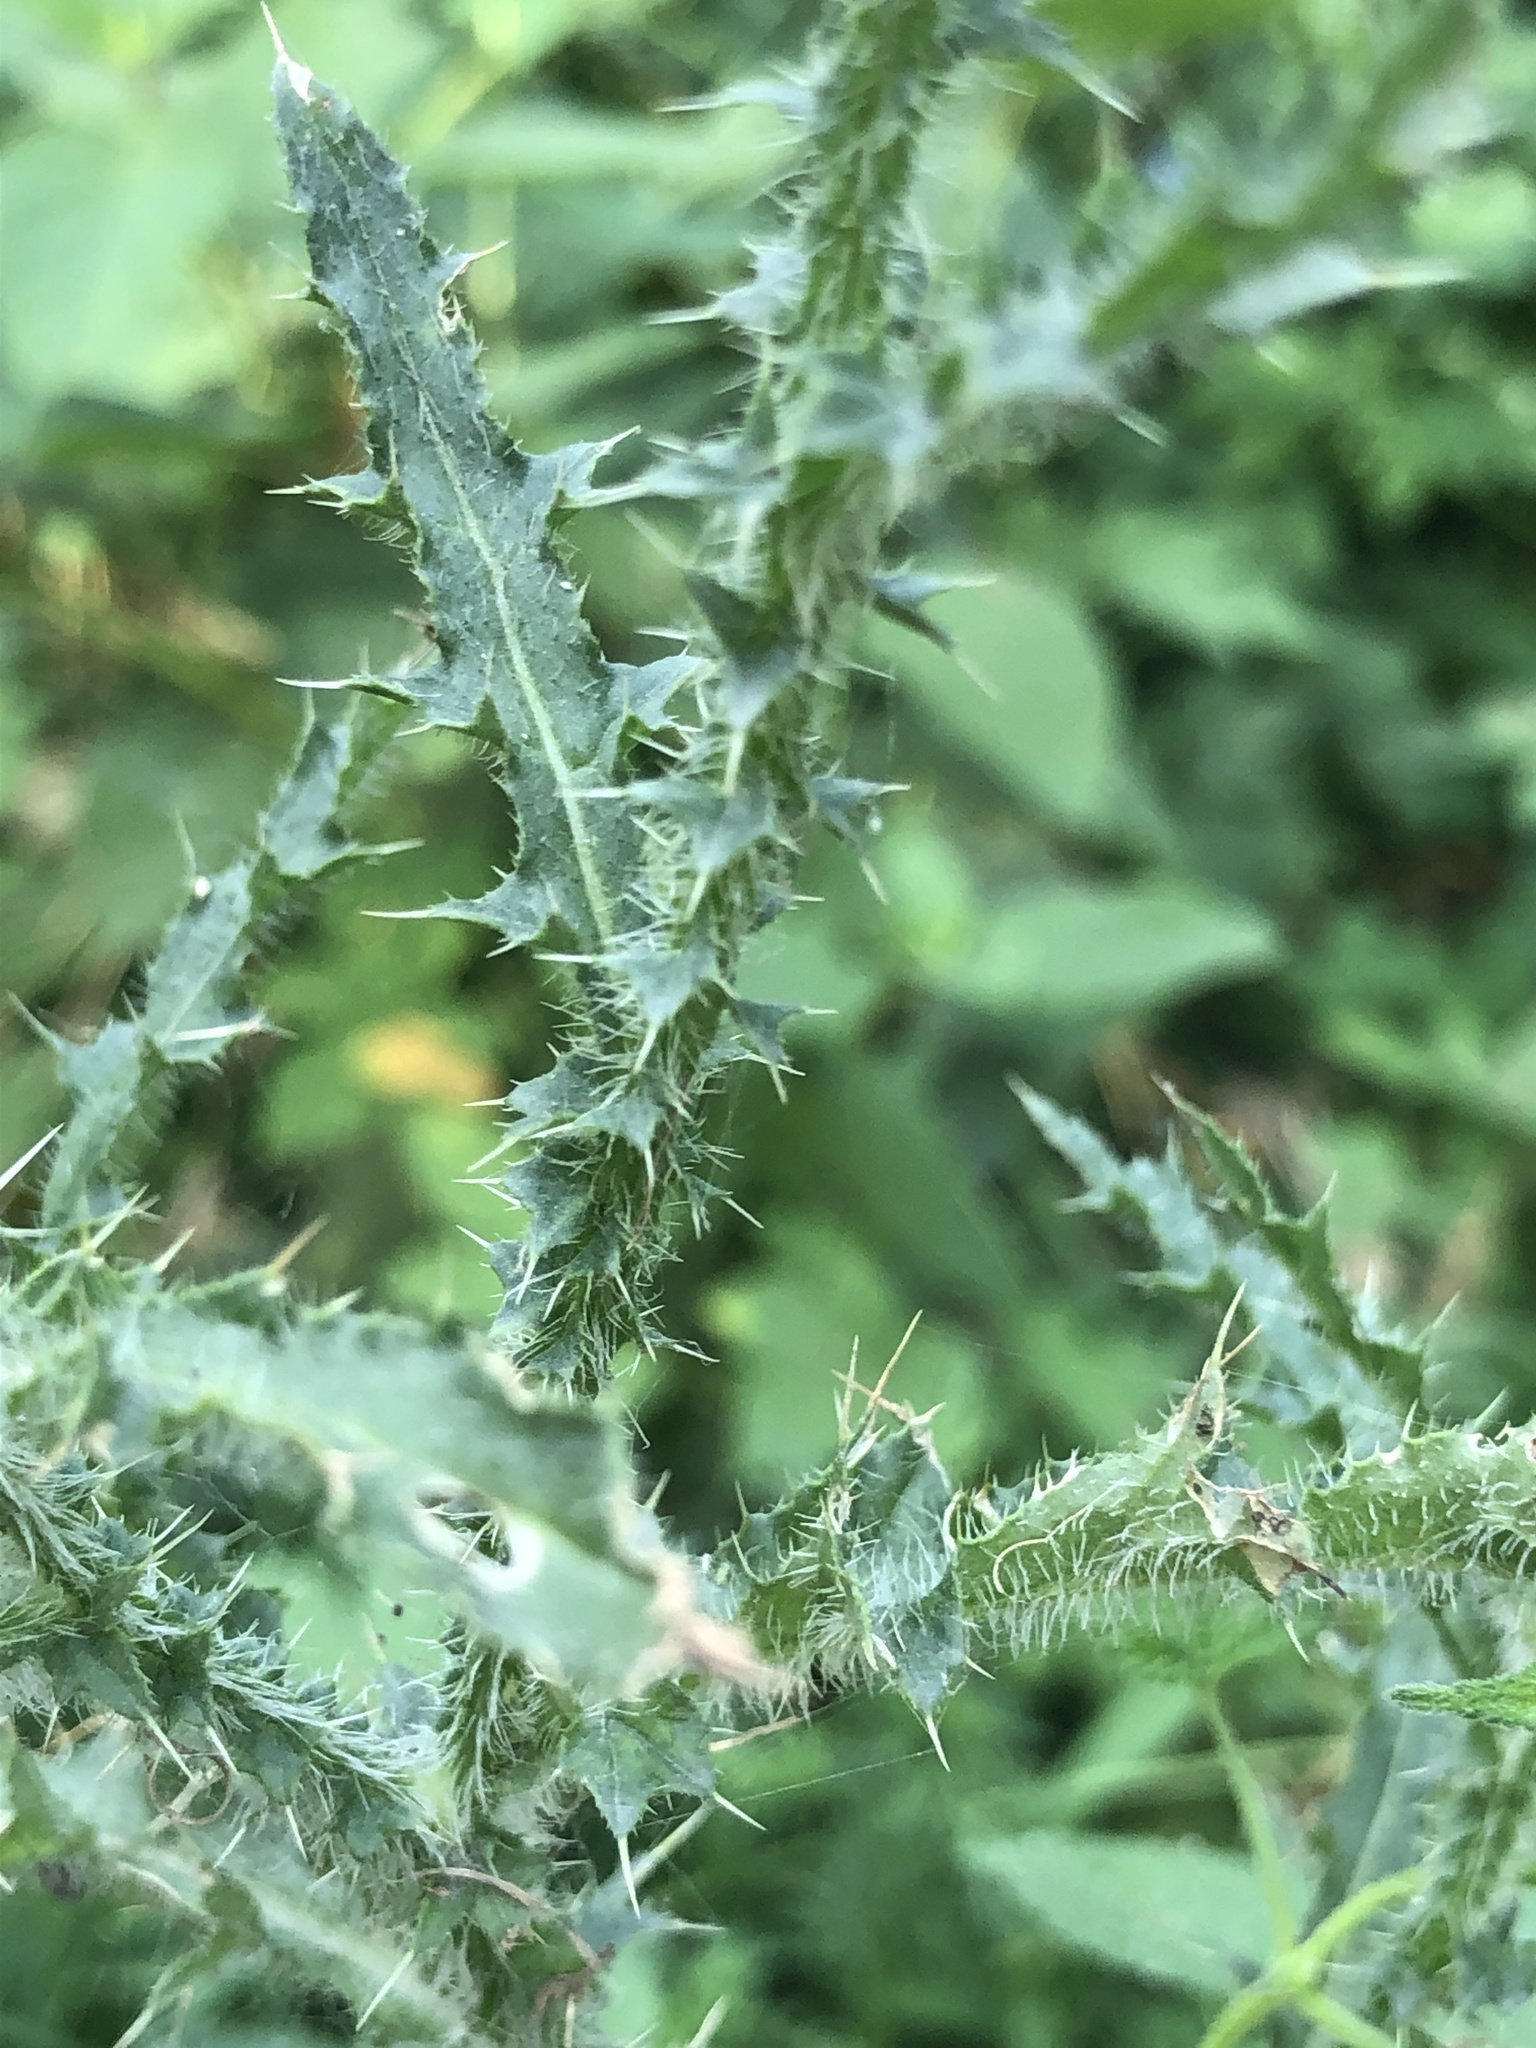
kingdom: Plantae
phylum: Tracheophyta
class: Magnoliopsida
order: Asterales
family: Asteraceae
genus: Carduus
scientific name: Carduus acanthoides
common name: Plumeless thistle
